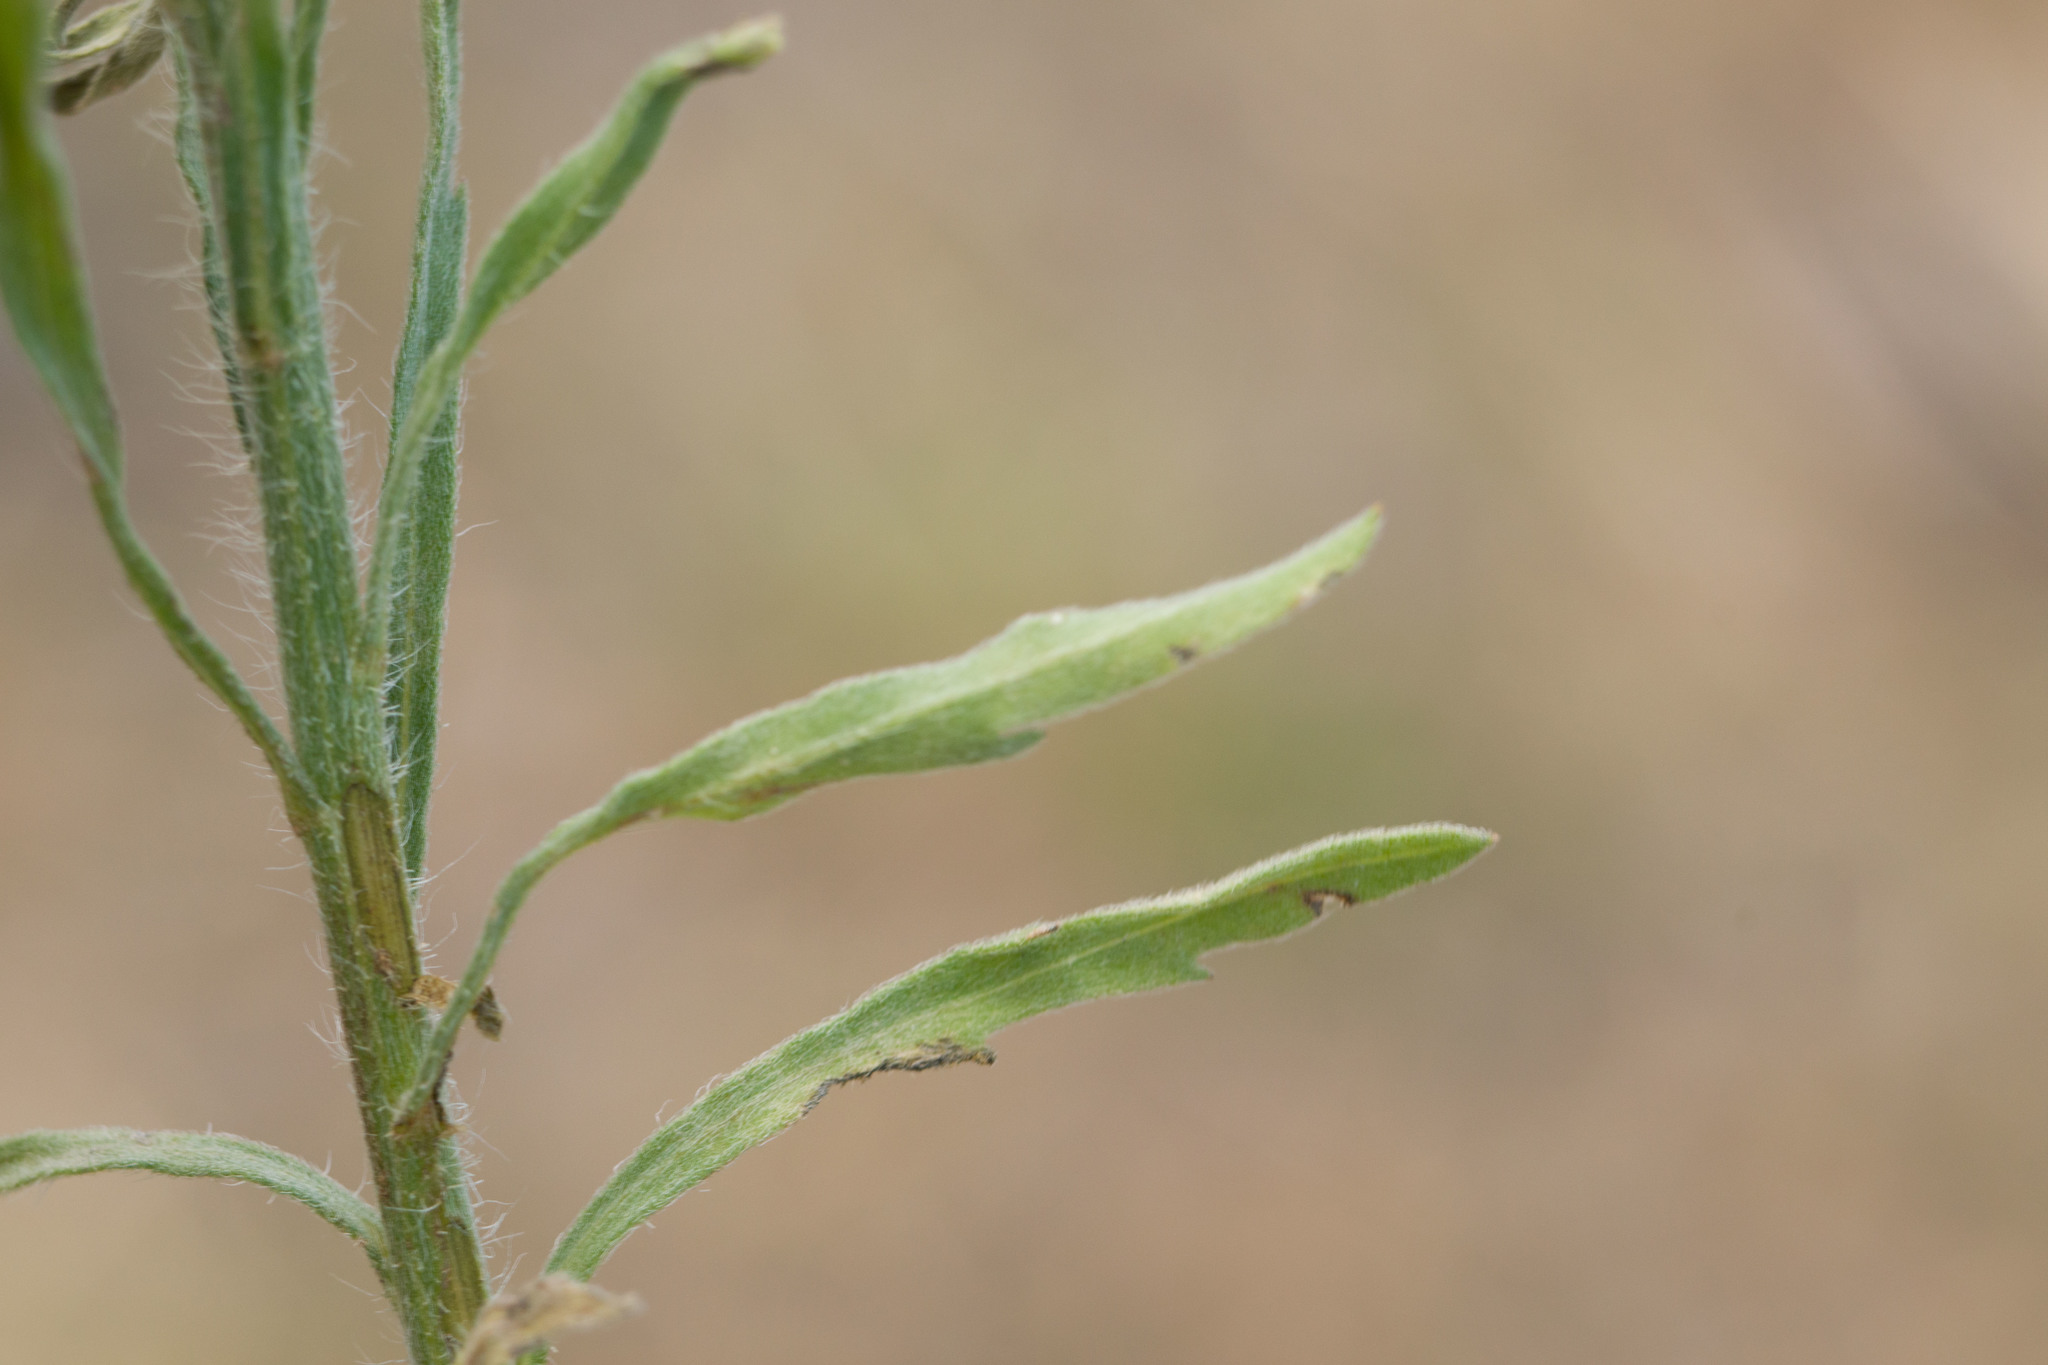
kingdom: Plantae
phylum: Tracheophyta
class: Magnoliopsida
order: Asterales
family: Asteraceae
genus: Erigeron
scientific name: Erigeron bonariensis
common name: Argentine fleabane
